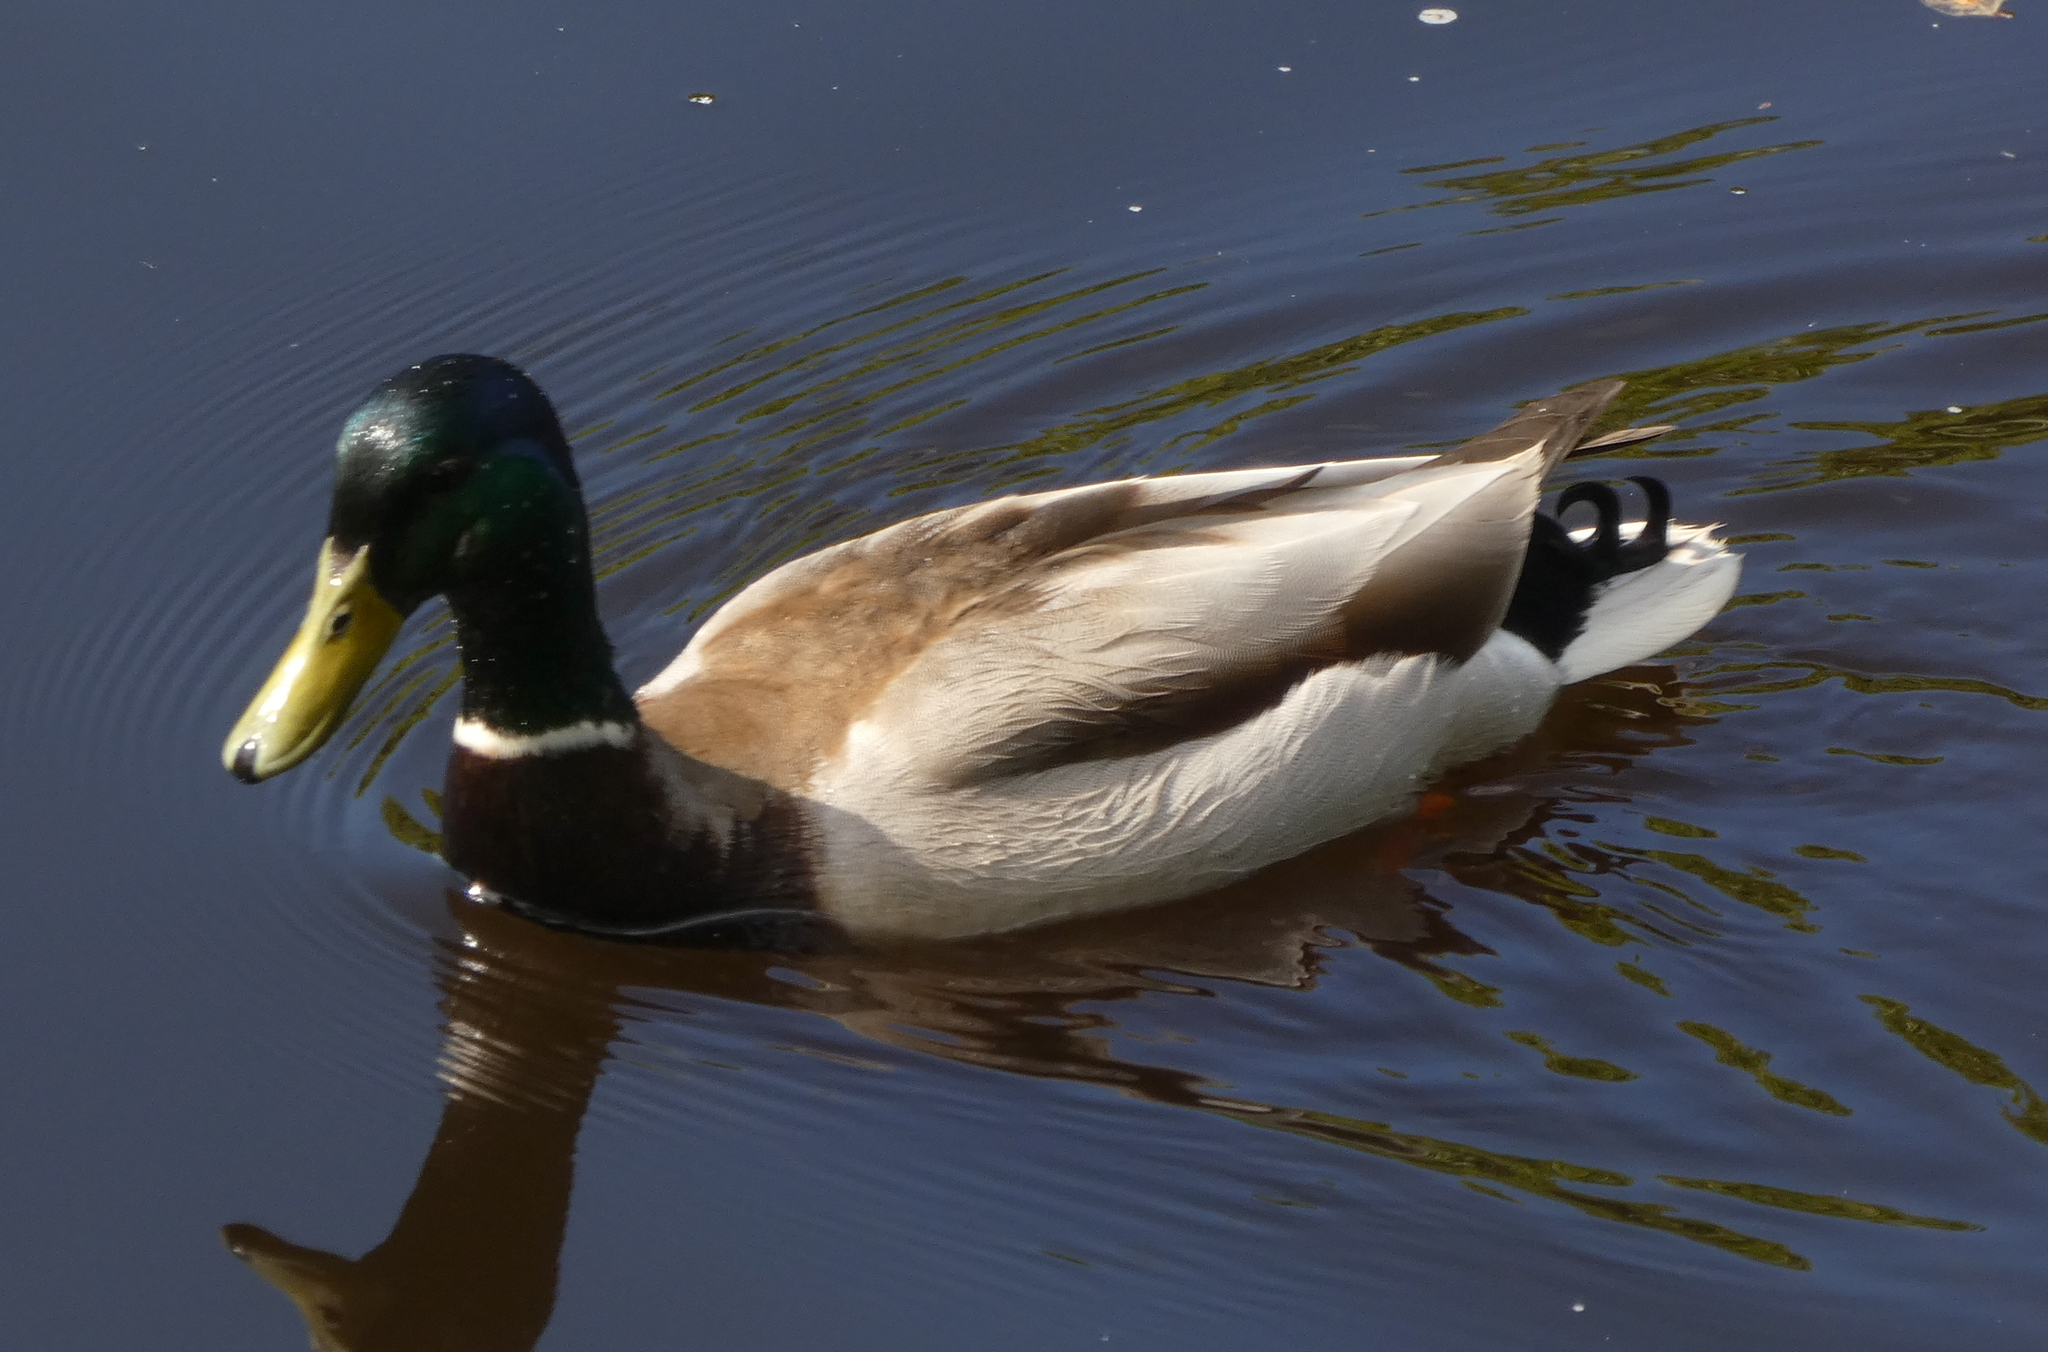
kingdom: Animalia
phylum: Chordata
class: Aves
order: Anseriformes
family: Anatidae
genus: Anas
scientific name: Anas platyrhynchos
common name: Mallard
